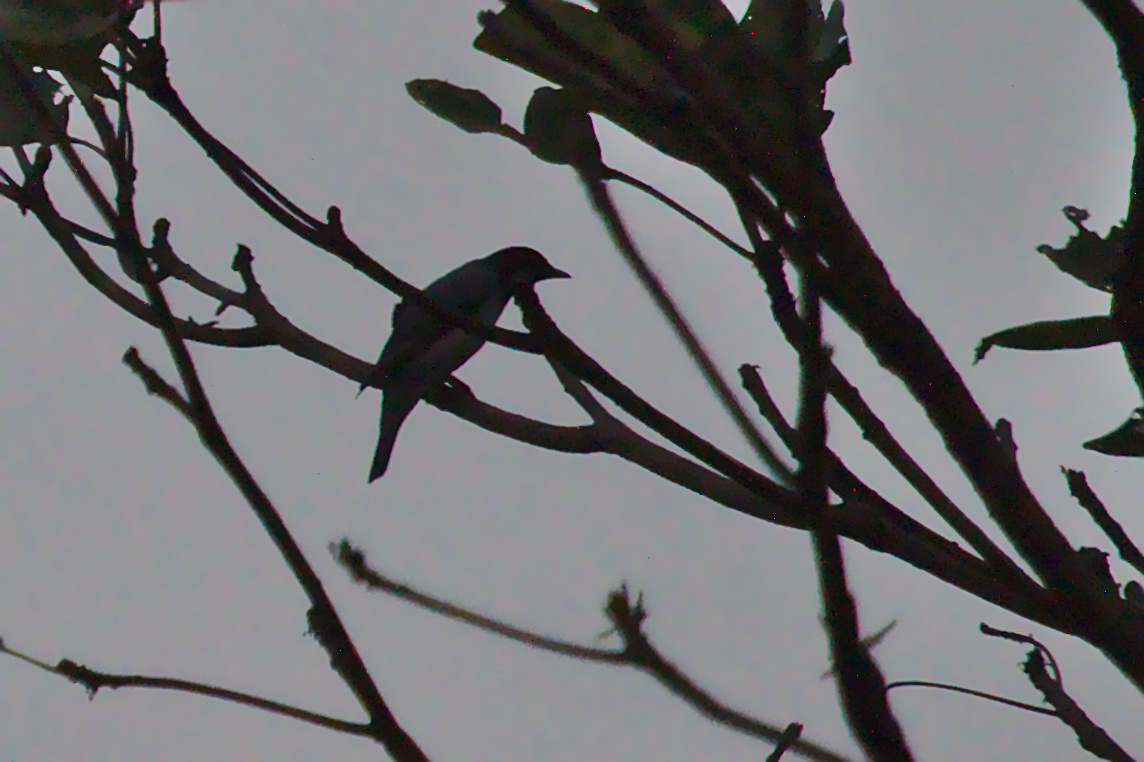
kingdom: Animalia
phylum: Chordata
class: Aves
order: Passeriformes
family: Campephagidae
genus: Coracina
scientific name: Coracina melanoptera
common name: Black-headed cuckooshrike
